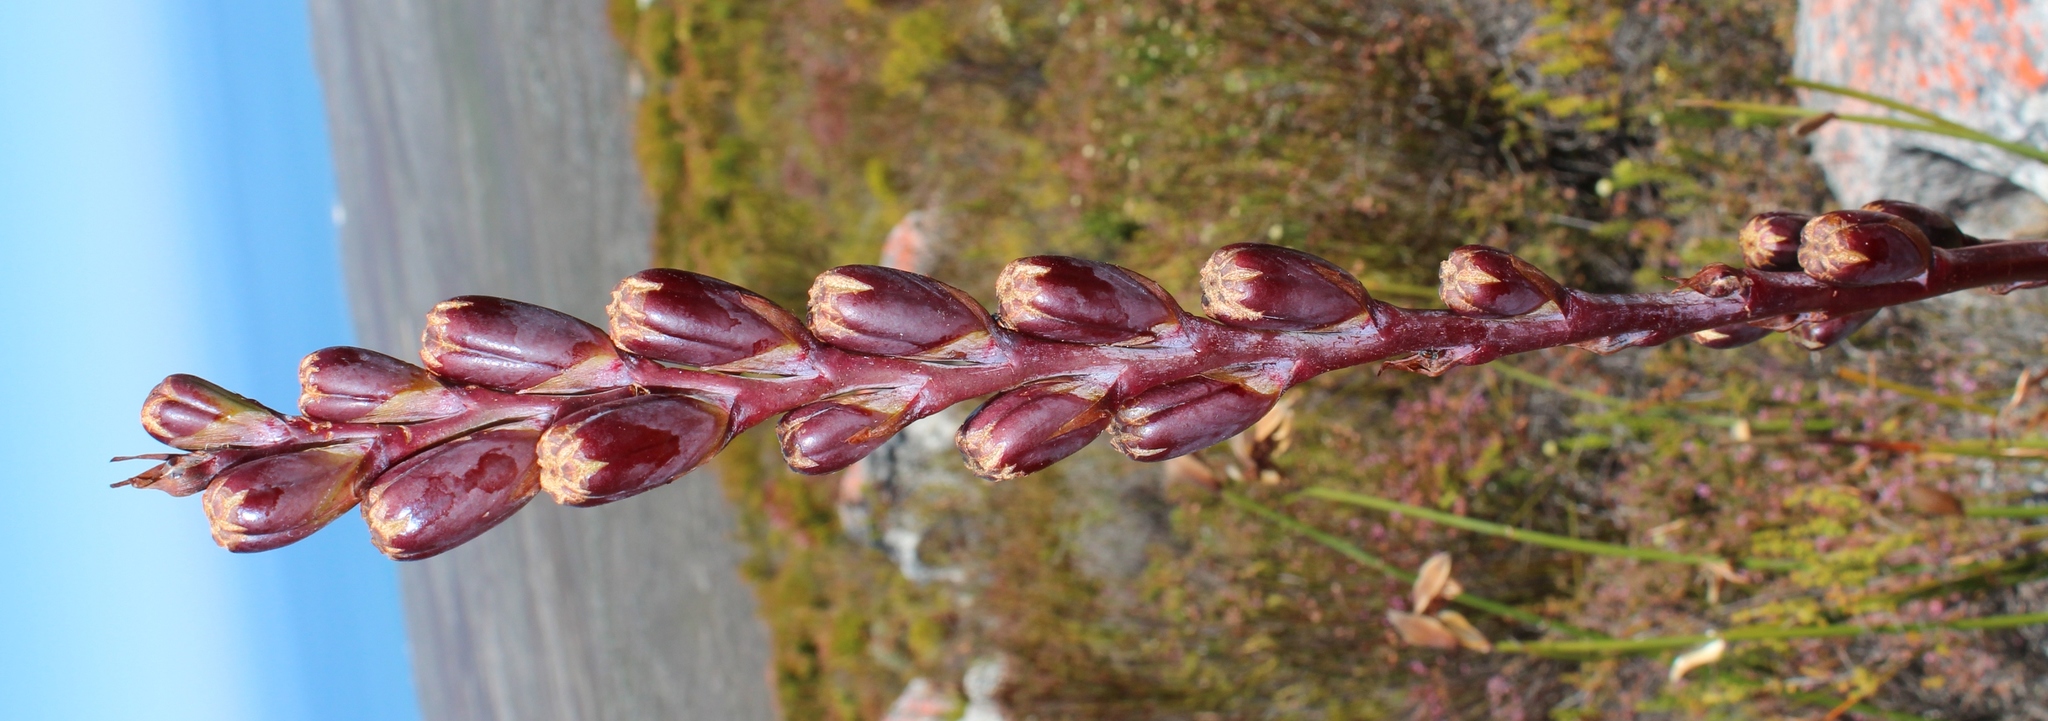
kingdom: Plantae
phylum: Tracheophyta
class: Liliopsida
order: Asparagales
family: Iridaceae
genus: Watsonia
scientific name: Watsonia tabularis
